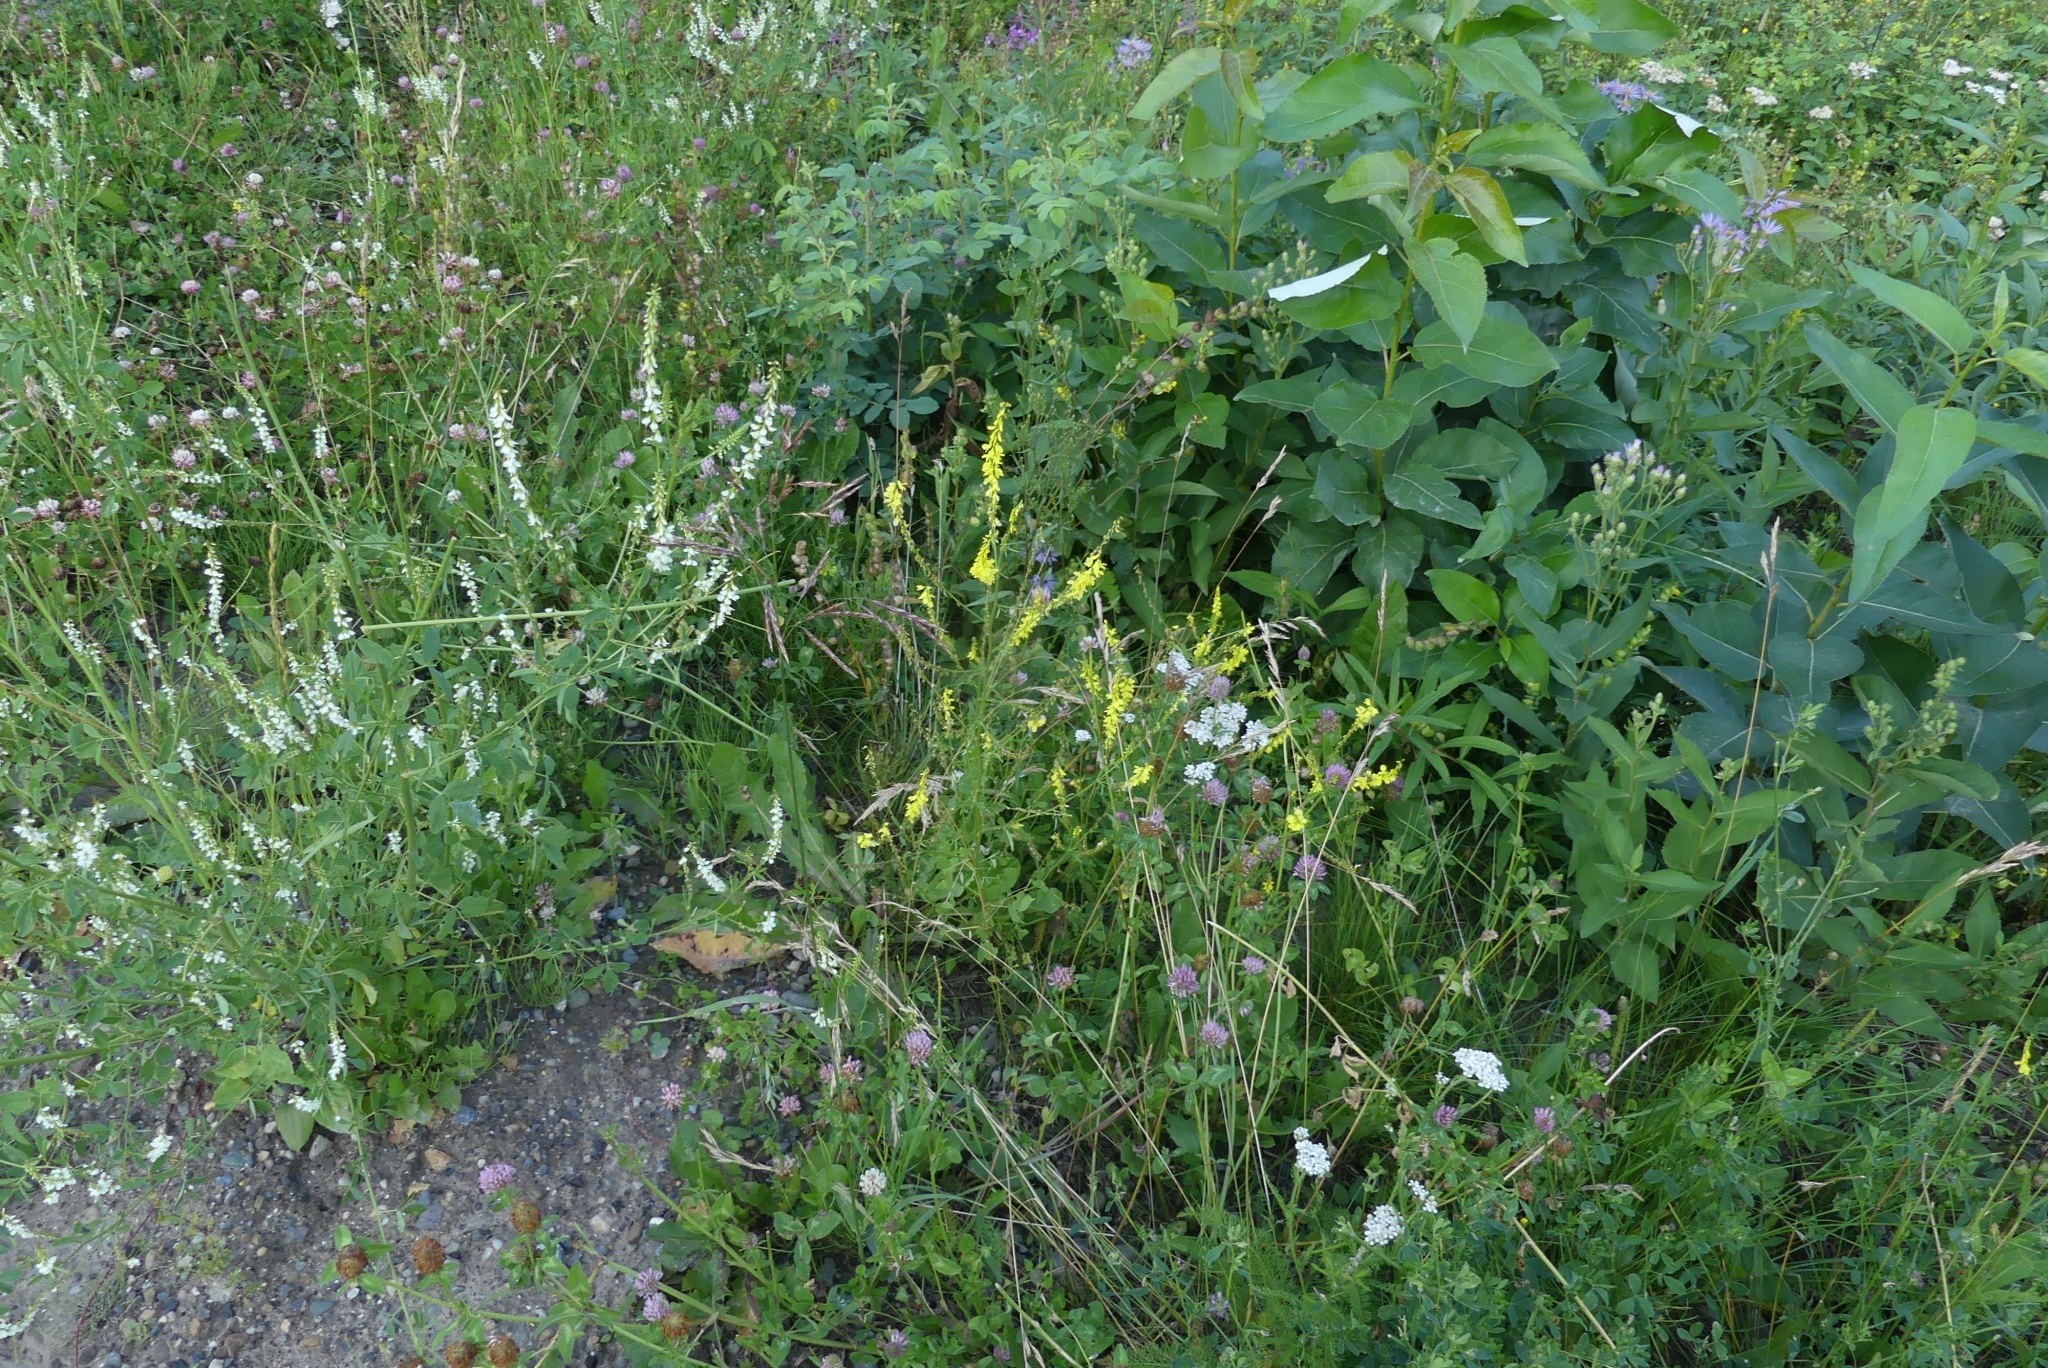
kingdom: Plantae
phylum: Tracheophyta
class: Magnoliopsida
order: Fabales
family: Fabaceae
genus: Melilotus
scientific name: Melilotus officinalis
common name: Sweetclover
